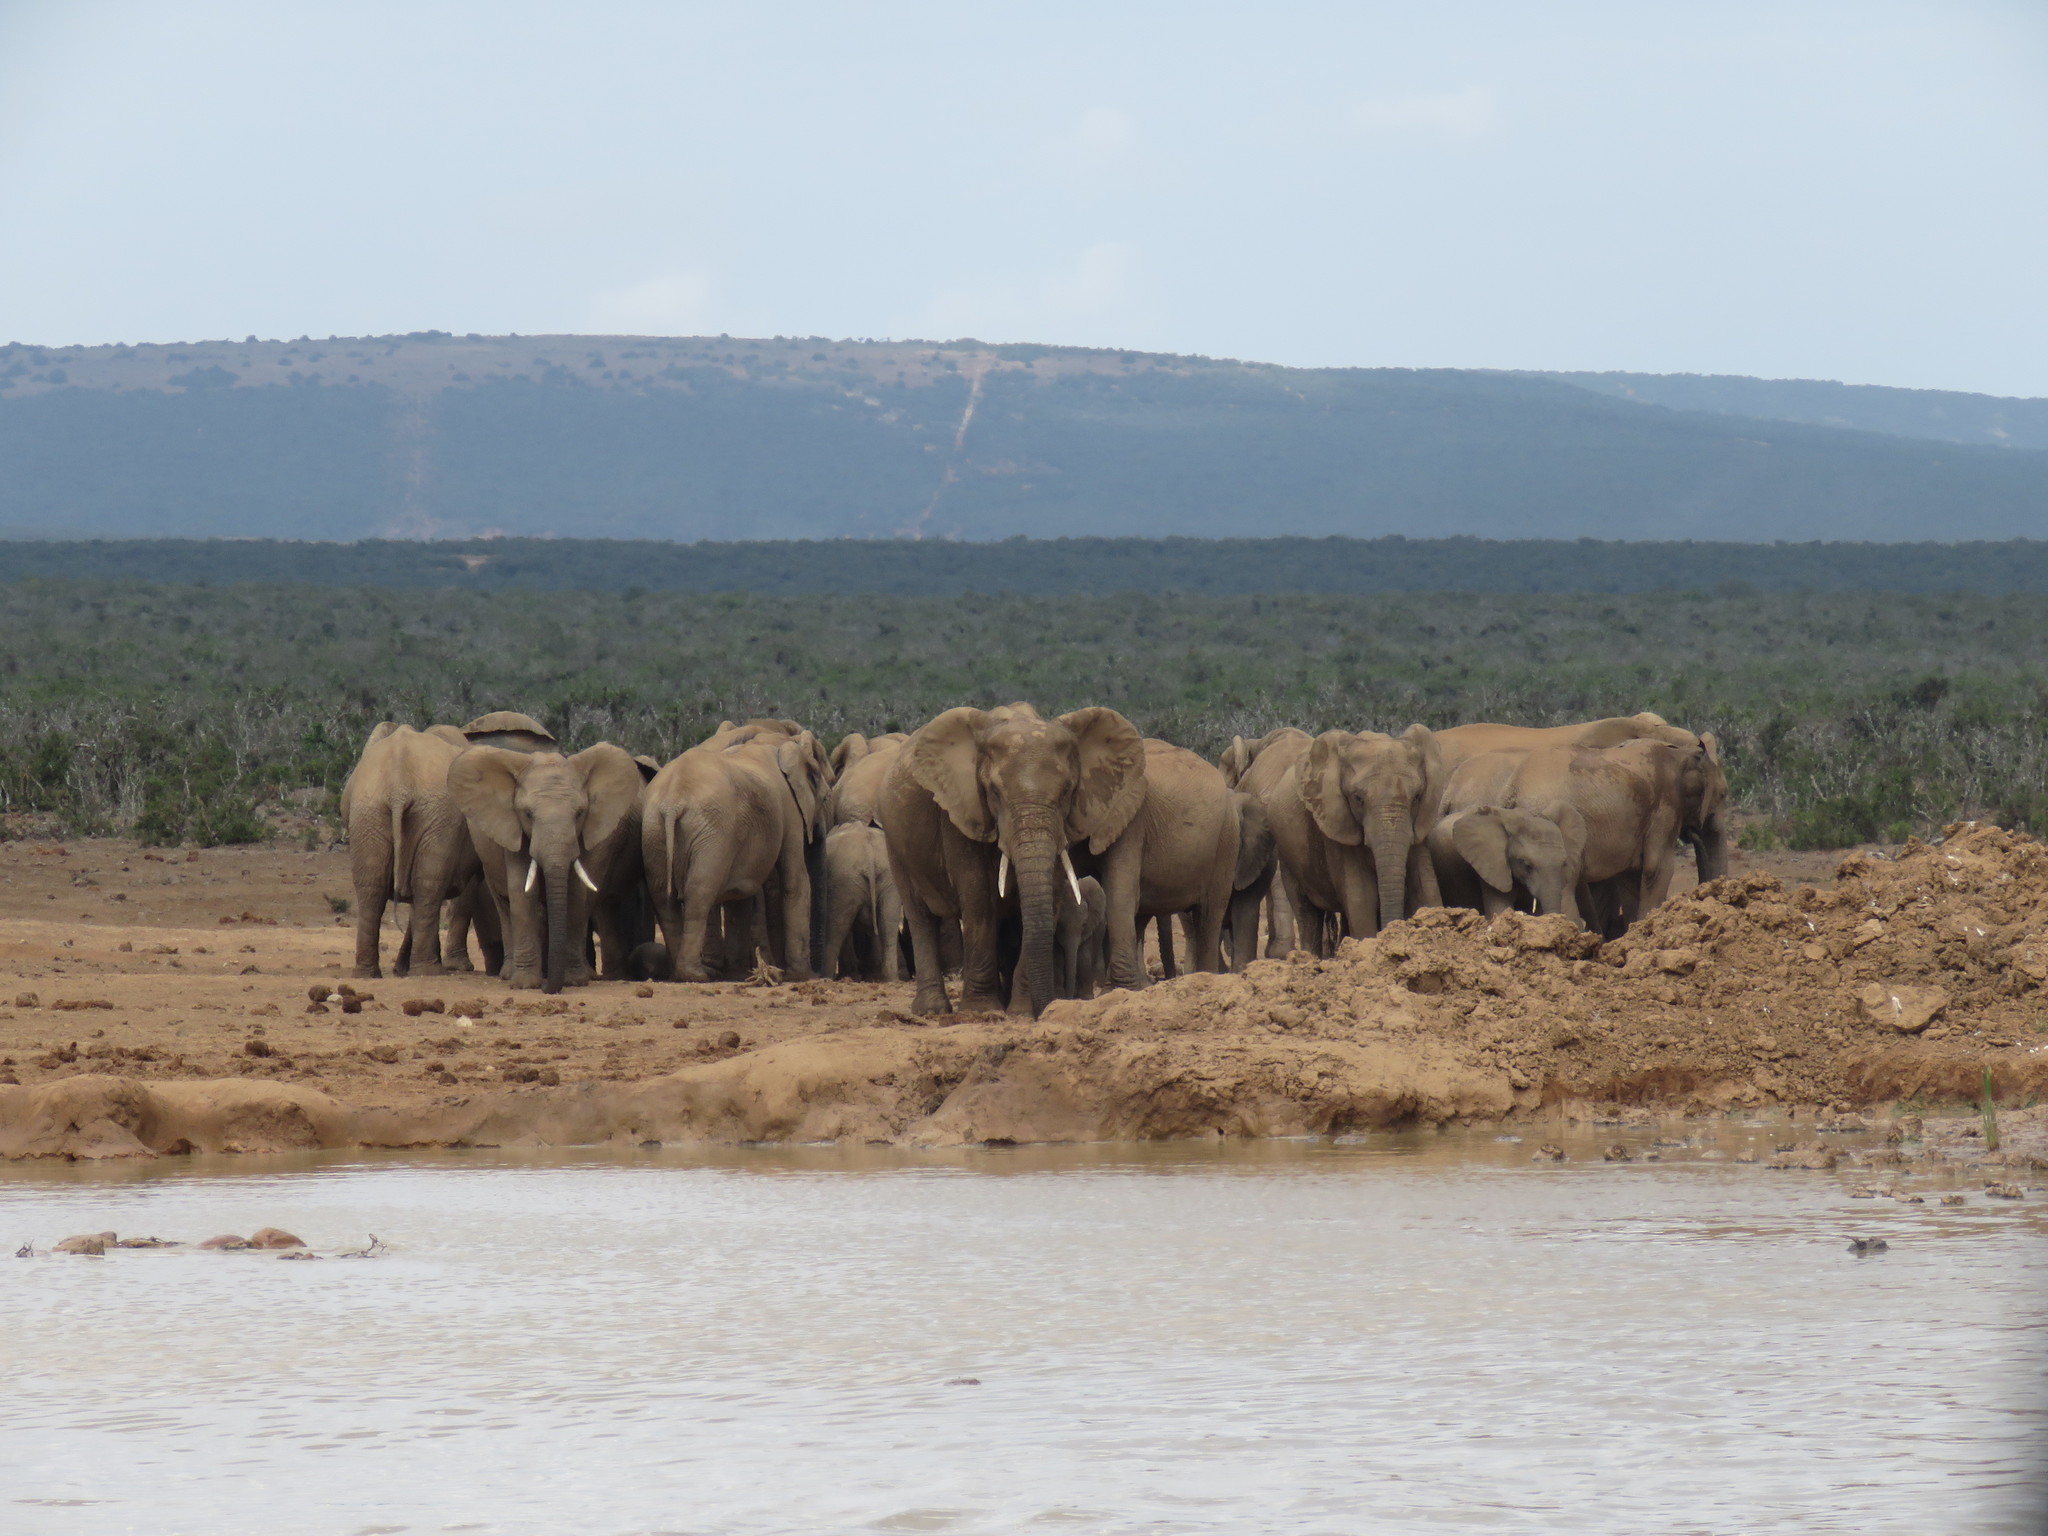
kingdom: Animalia
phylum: Chordata
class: Mammalia
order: Proboscidea
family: Elephantidae
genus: Loxodonta
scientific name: Loxodonta africana
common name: African elephant
